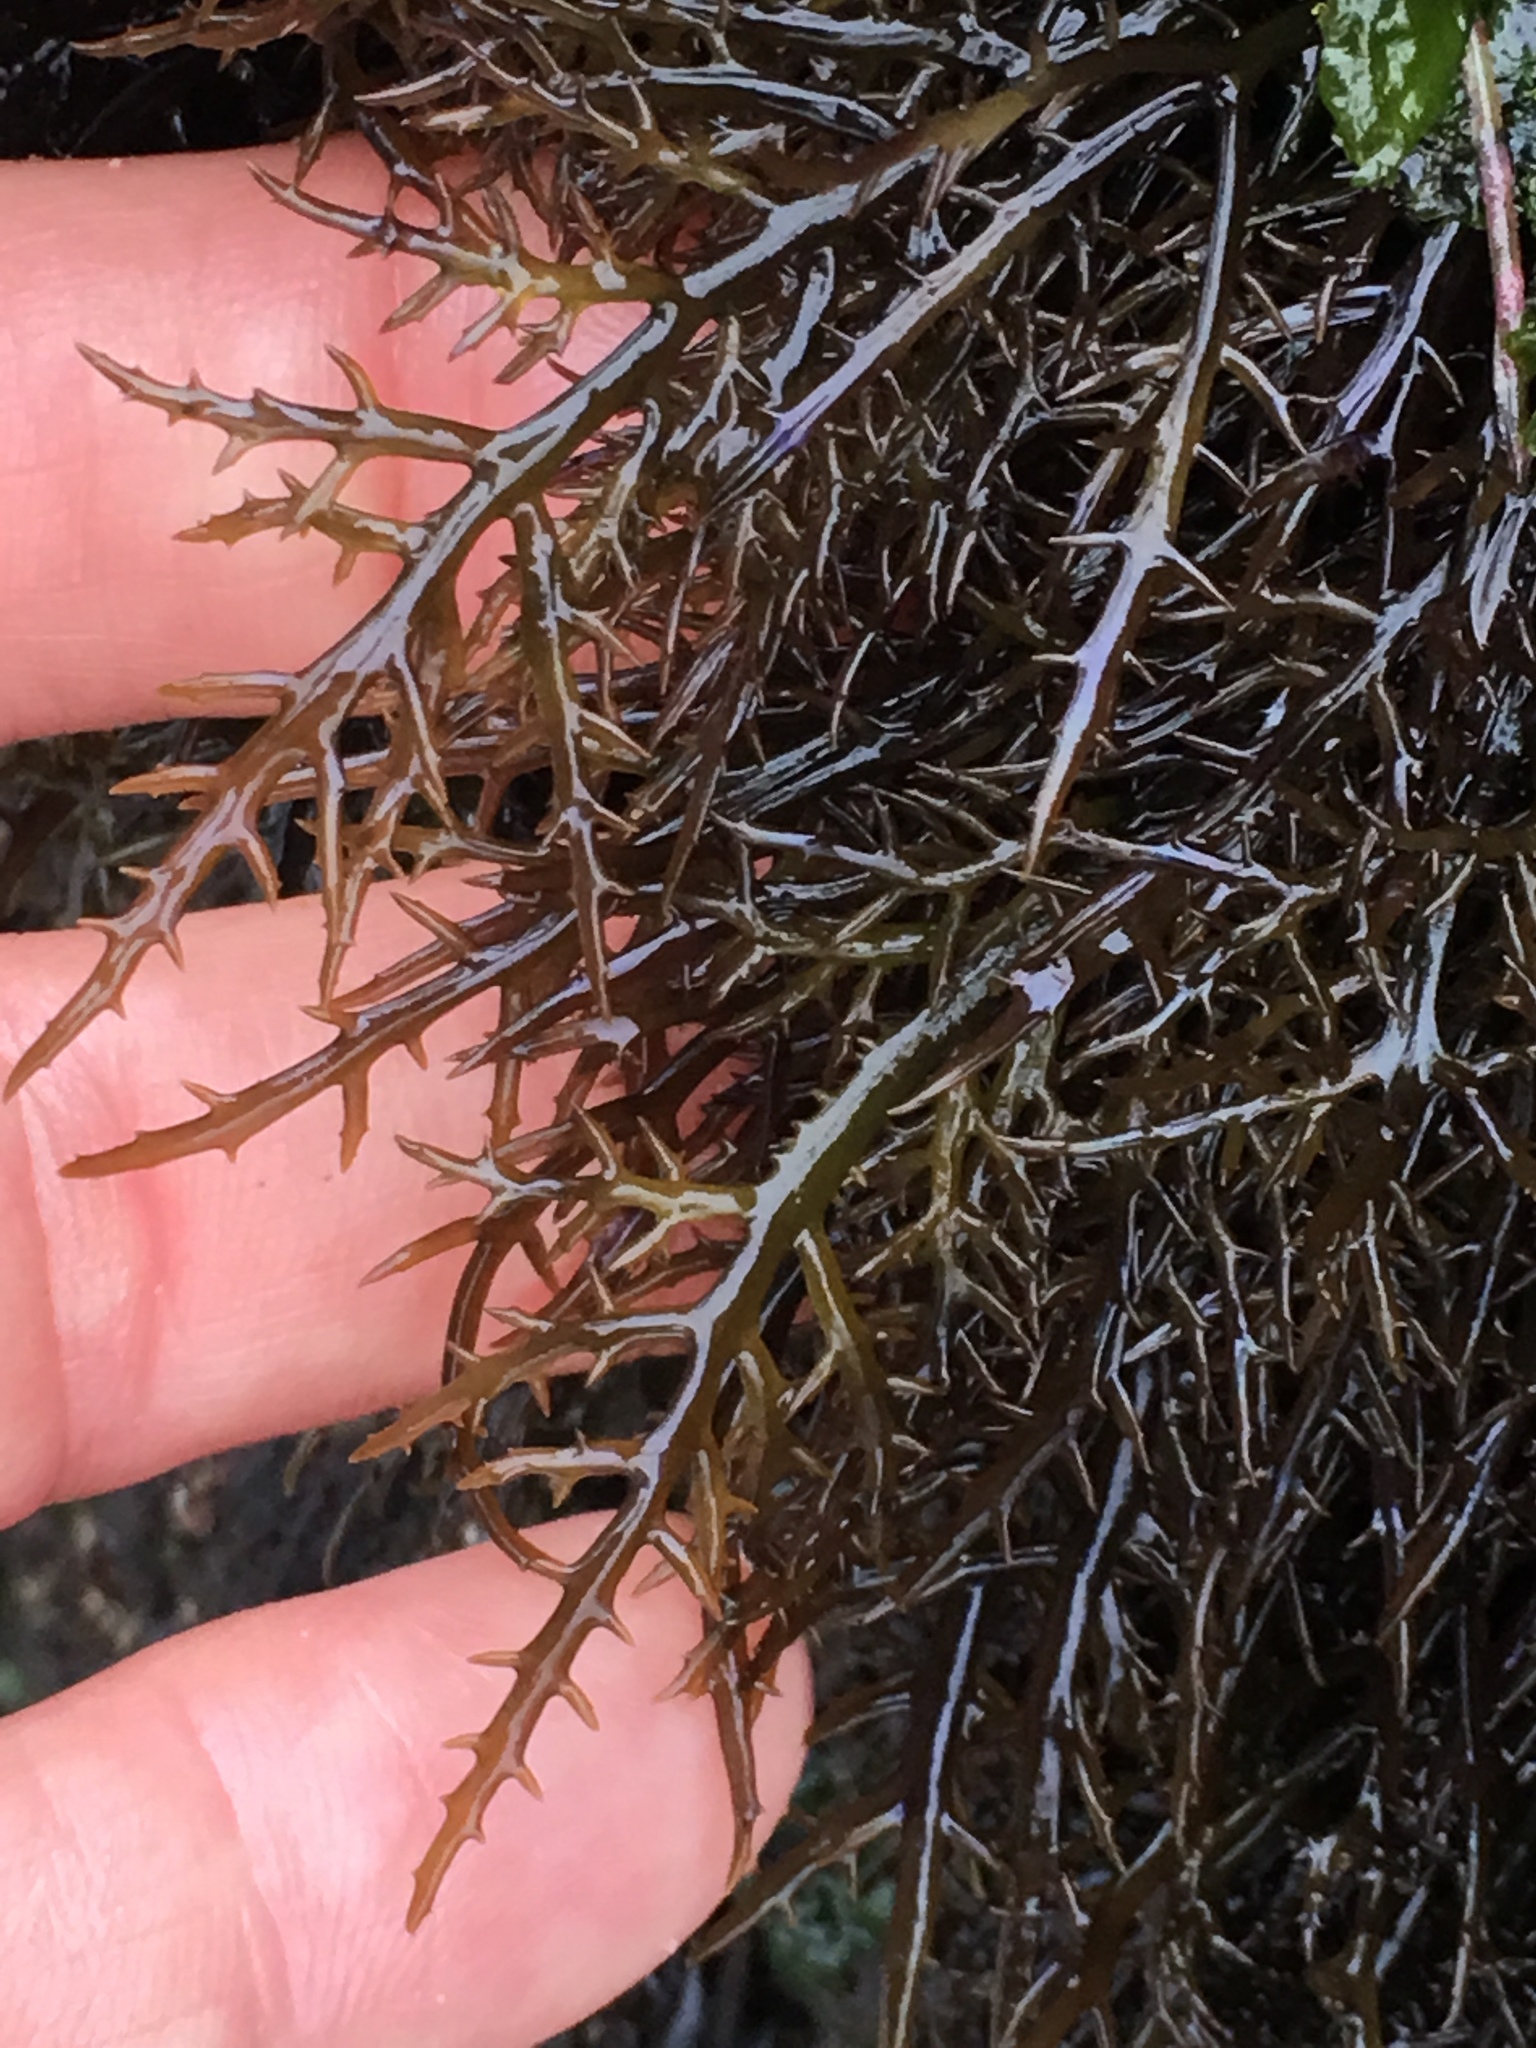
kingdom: Plantae
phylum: Rhodophyta
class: Florideophyceae
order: Gigartinales
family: Gigartinaceae
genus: Chondracanthus
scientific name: Chondracanthus canaliculatus
